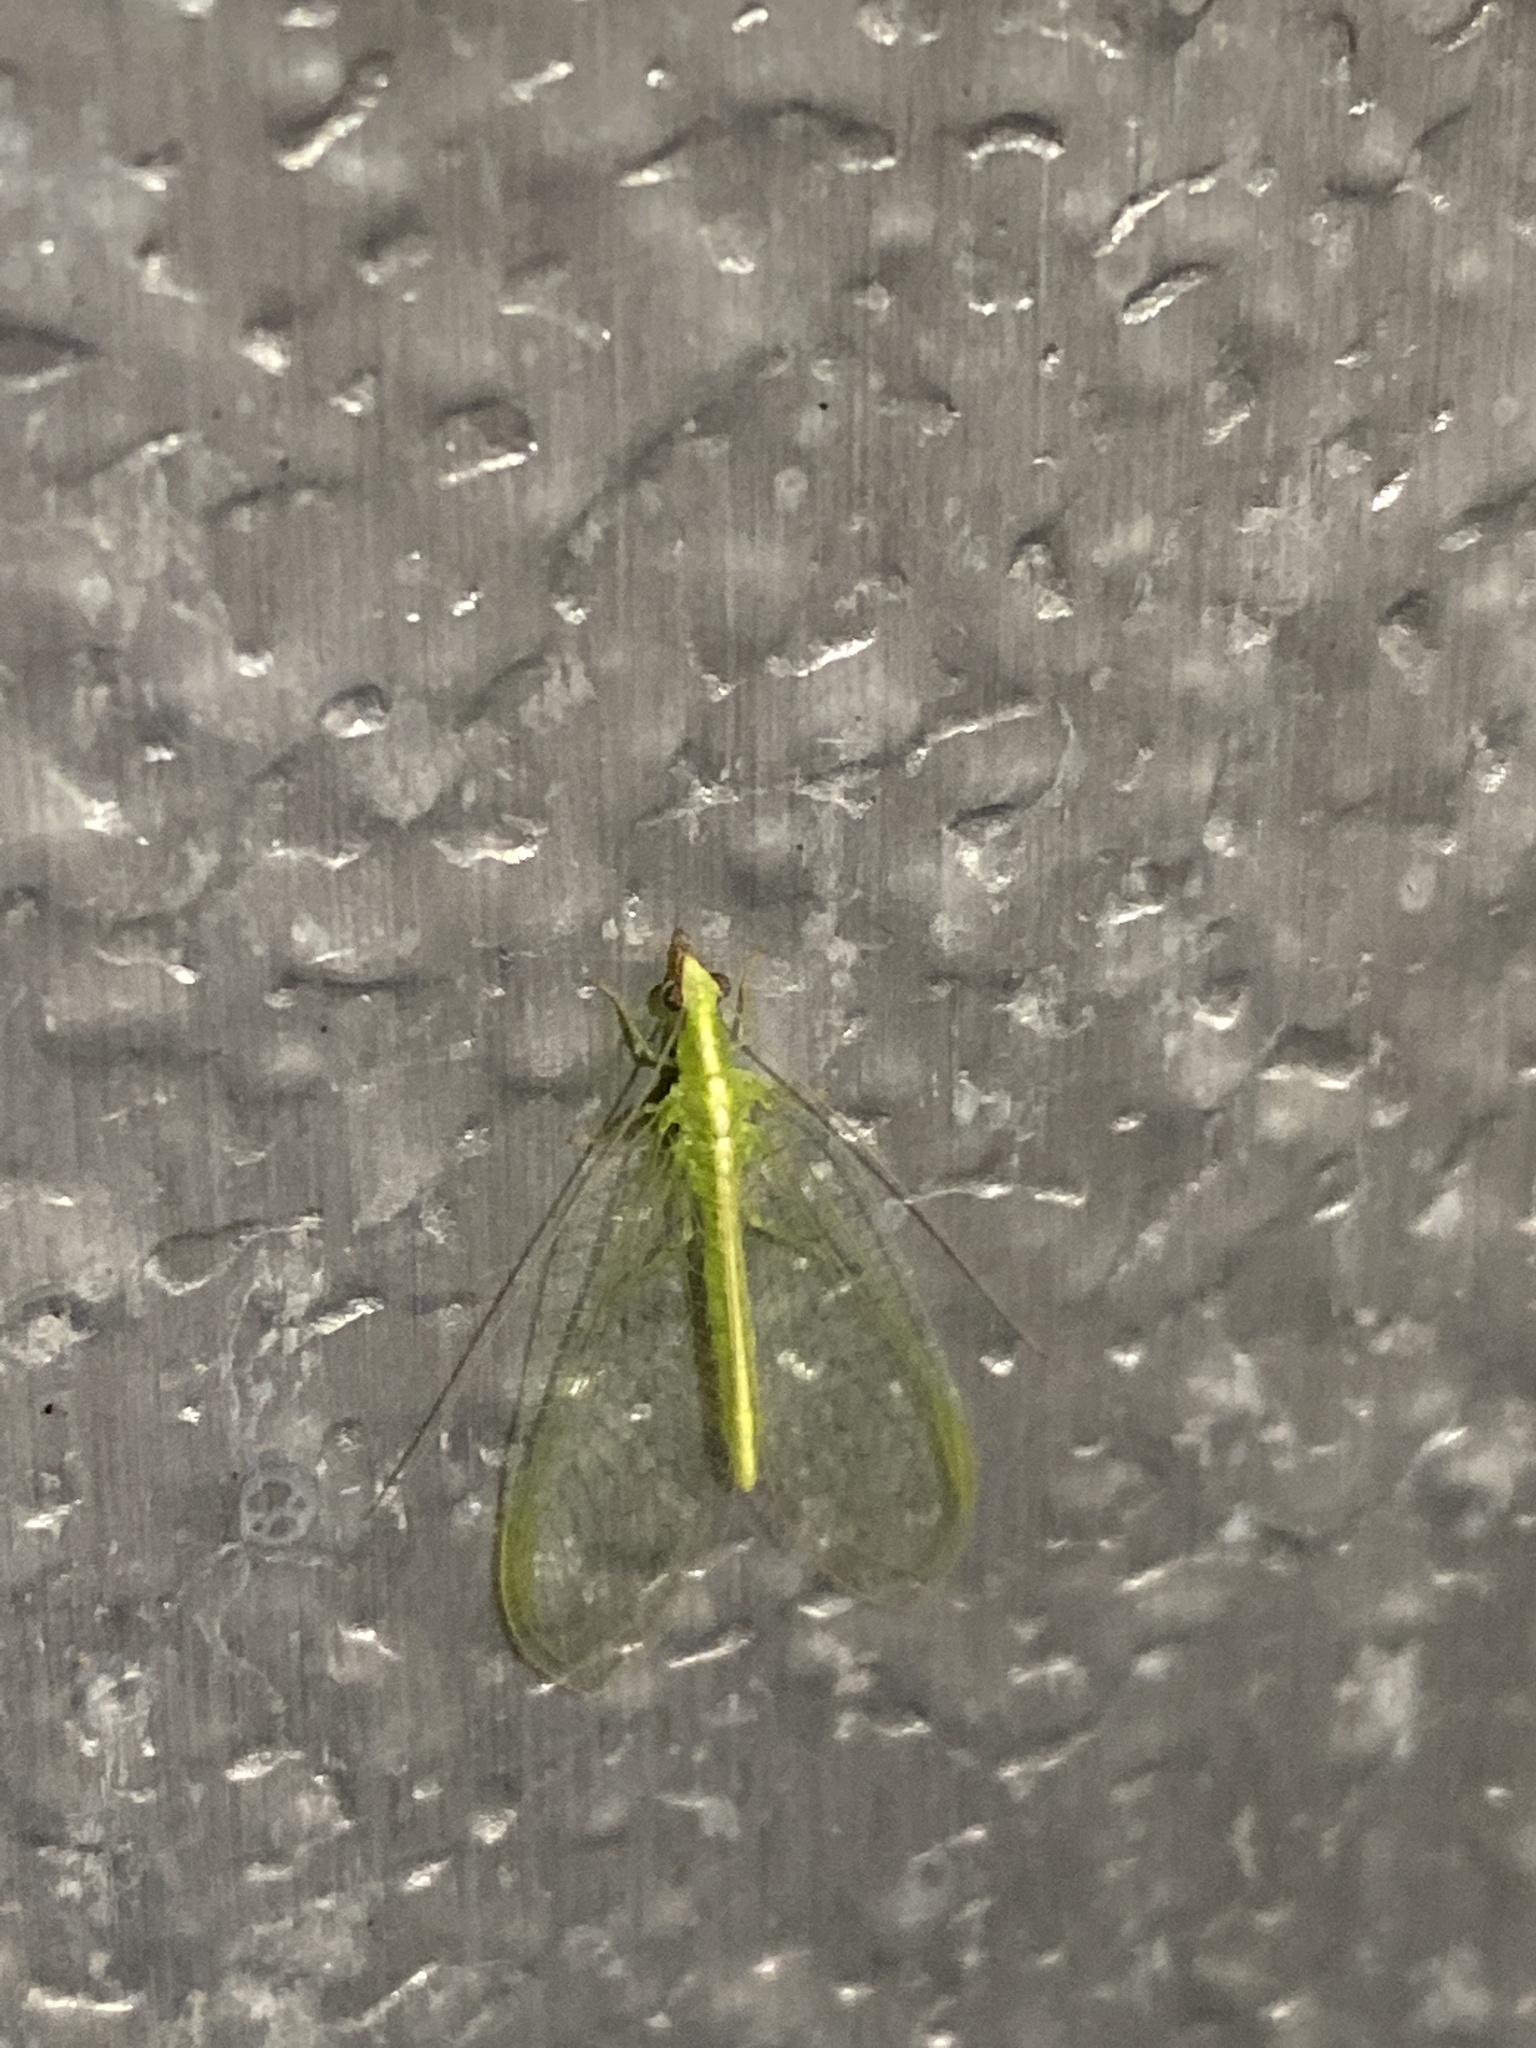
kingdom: Animalia
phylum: Arthropoda
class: Insecta
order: Neuroptera
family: Chrysopidae
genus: Chrysoperla
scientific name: Chrysoperla rufilabris
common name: Red-lipped green lacewing
